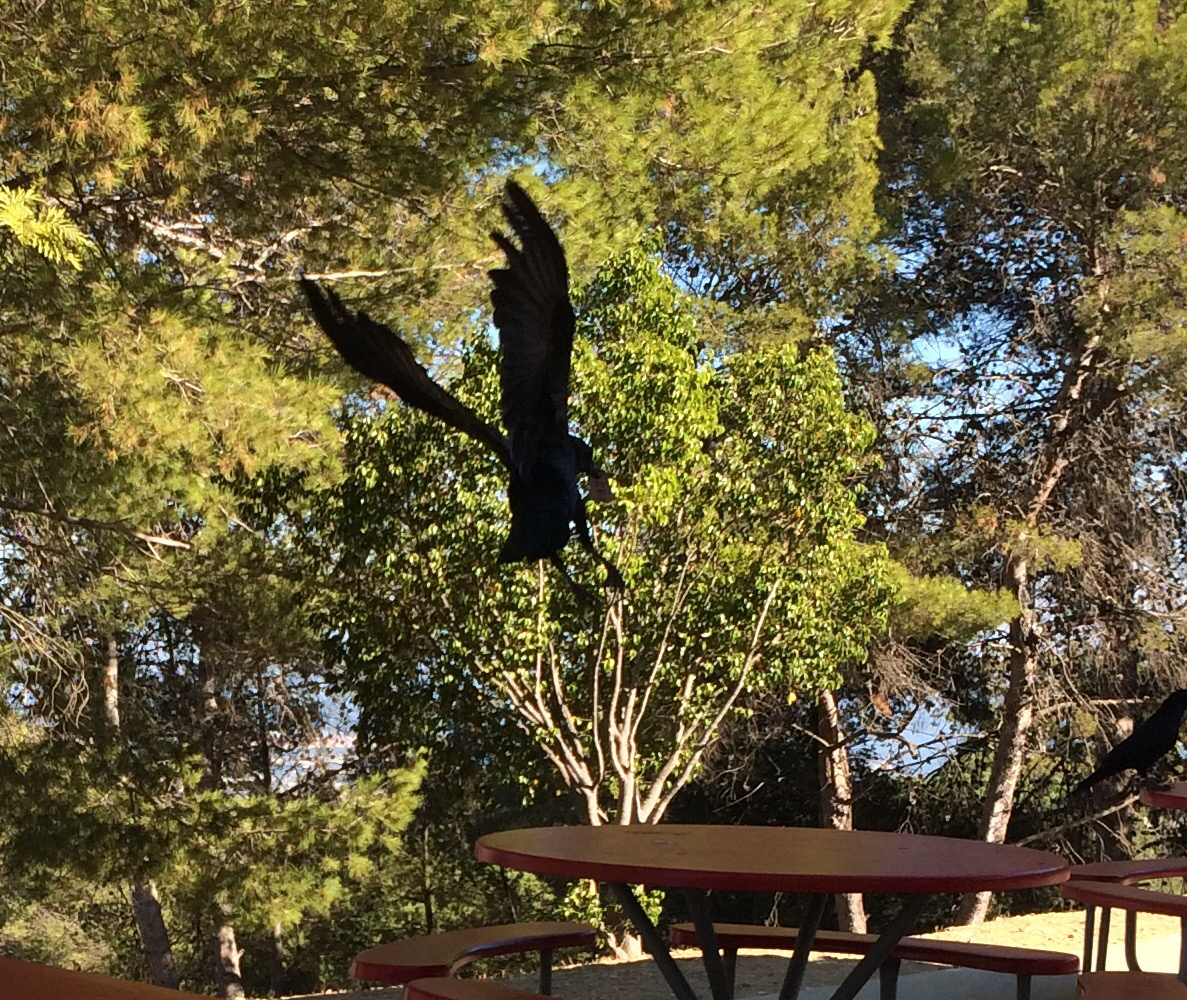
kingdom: Animalia
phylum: Chordata
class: Aves
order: Passeriformes
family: Corvidae
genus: Corvus
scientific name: Corvus
